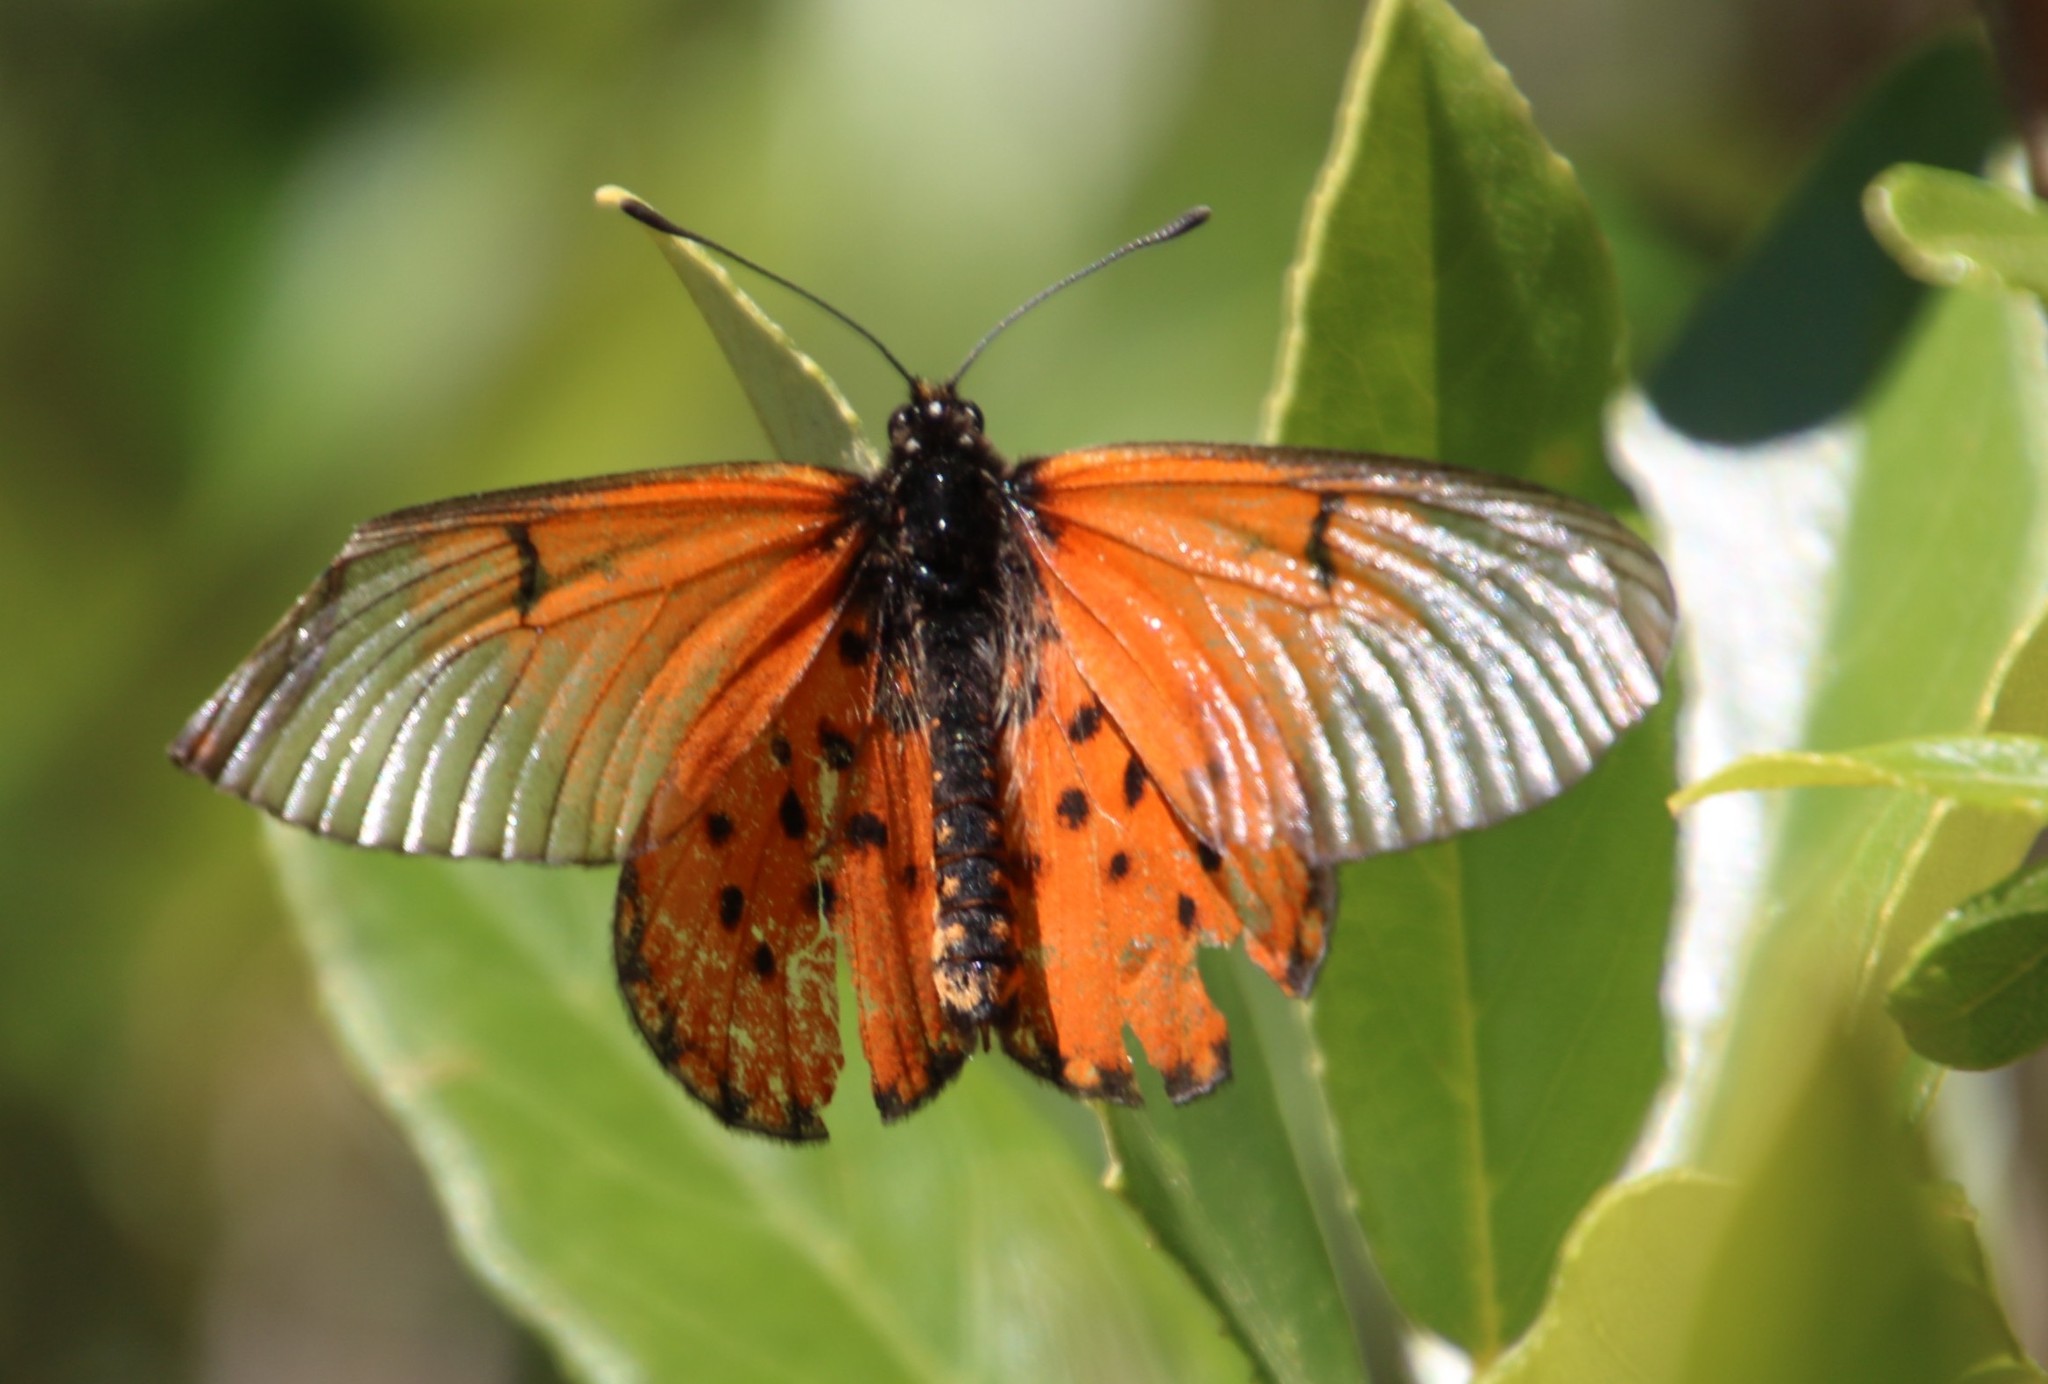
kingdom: Animalia
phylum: Arthropoda
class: Insecta
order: Lepidoptera
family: Nymphalidae
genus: Acraea
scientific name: Acraea horta
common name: Garden acraea
